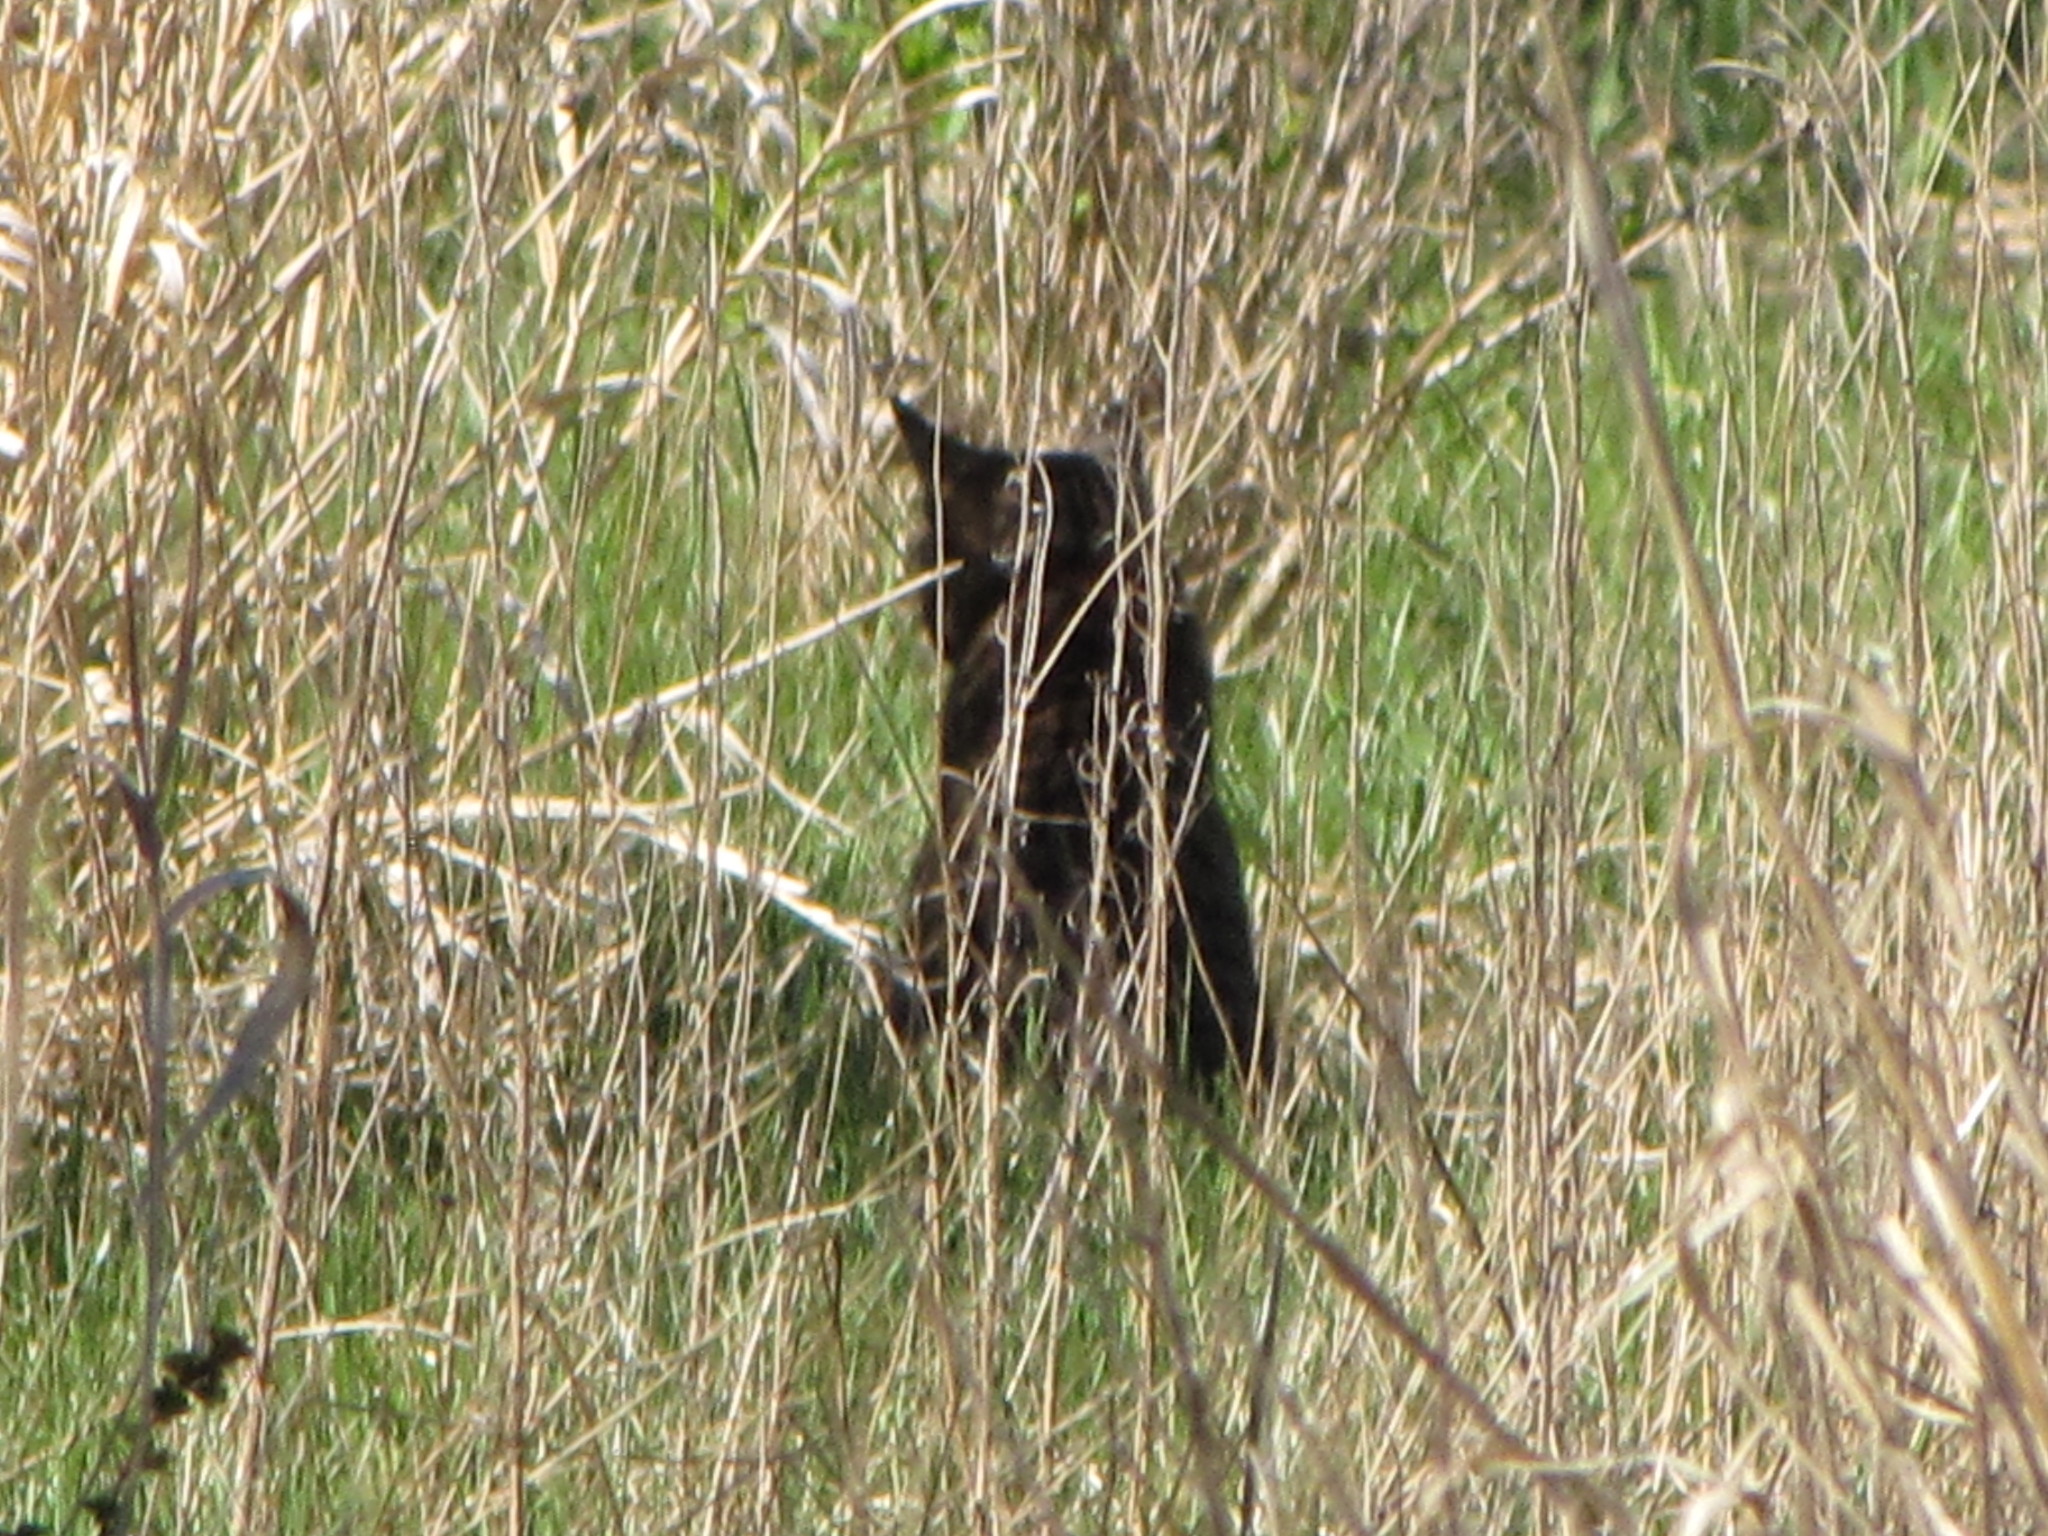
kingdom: Animalia
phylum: Chordata
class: Mammalia
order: Carnivora
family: Felidae
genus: Felis
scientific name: Felis catus
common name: Domestic cat
